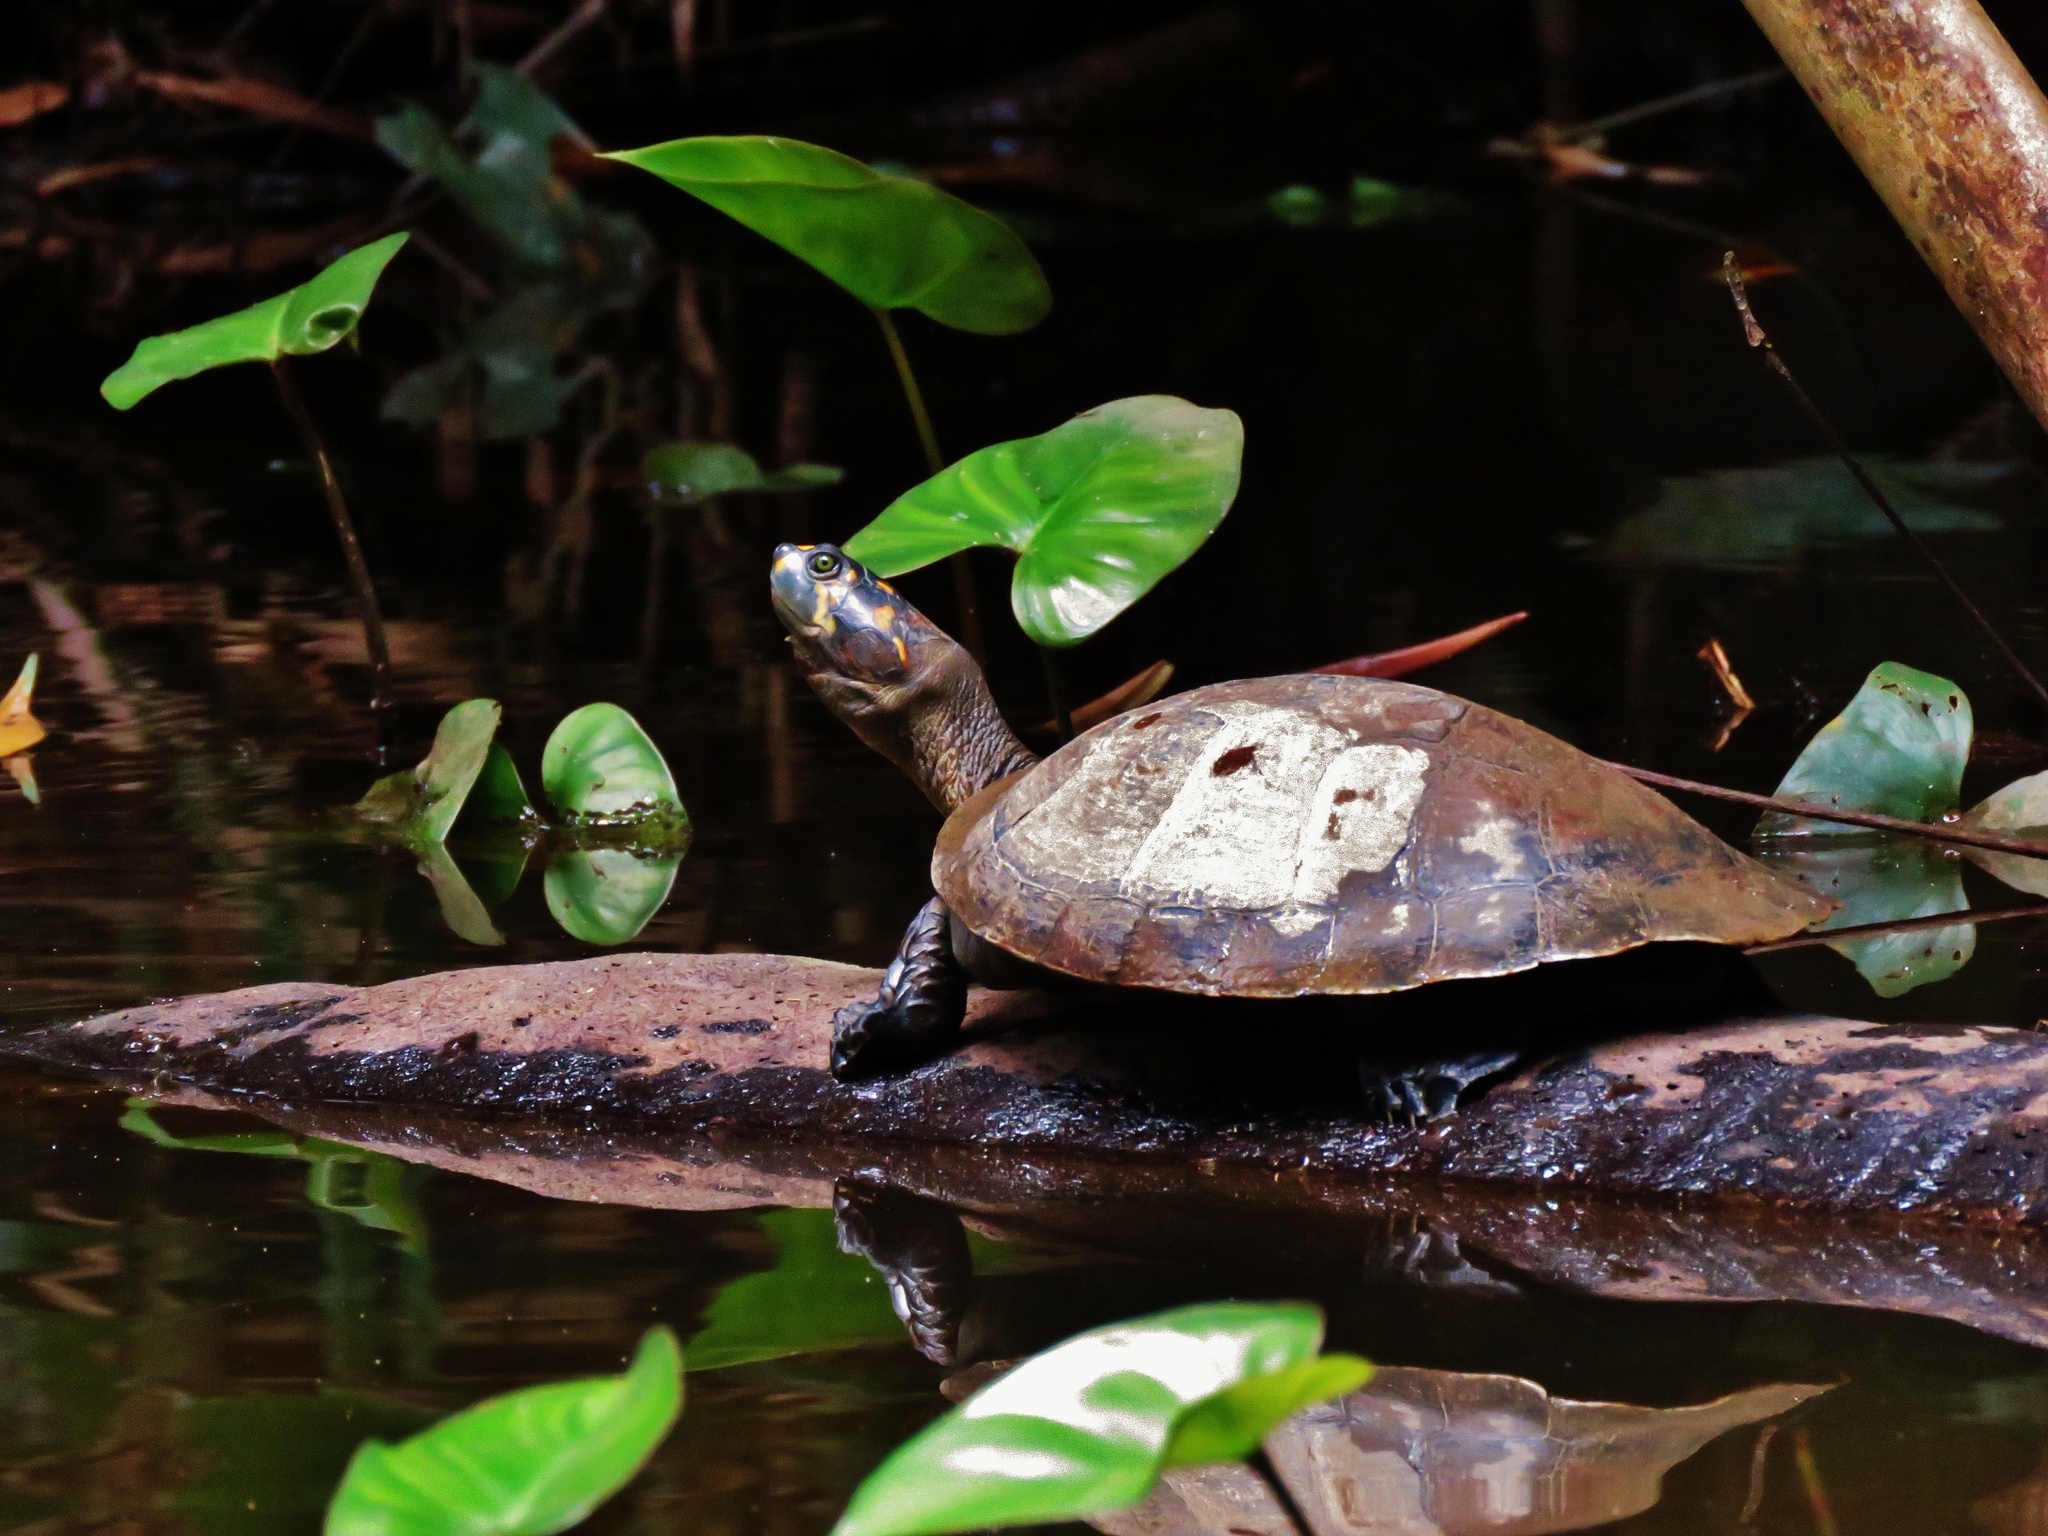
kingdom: Animalia
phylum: Chordata
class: Testudines
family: Podocnemididae
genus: Podocnemis
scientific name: Podocnemis unifilis
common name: Yellow-spotted amazon river turtle
